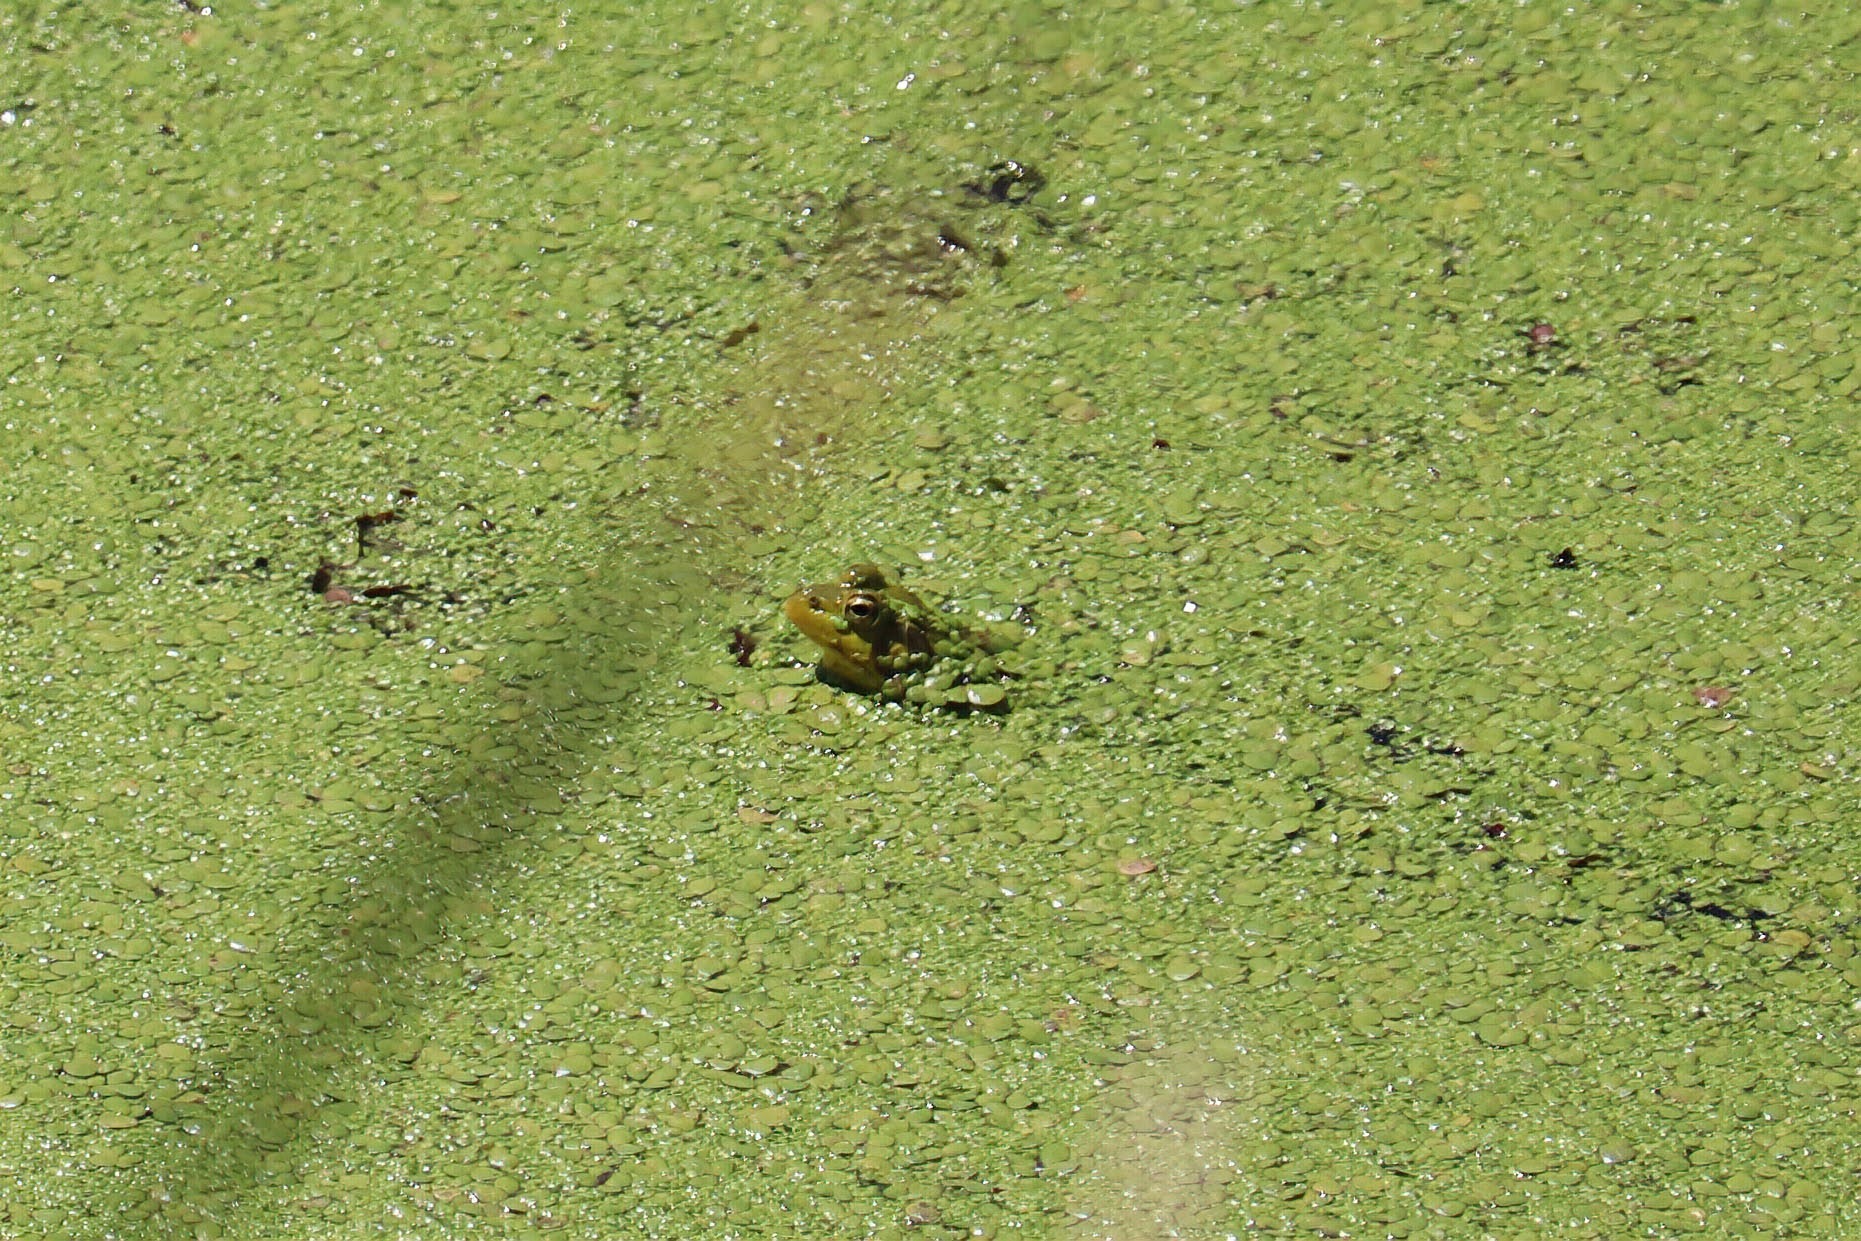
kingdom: Animalia
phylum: Chordata
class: Amphibia
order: Anura
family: Ranidae
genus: Lithobates
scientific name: Lithobates clamitans
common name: Green frog
